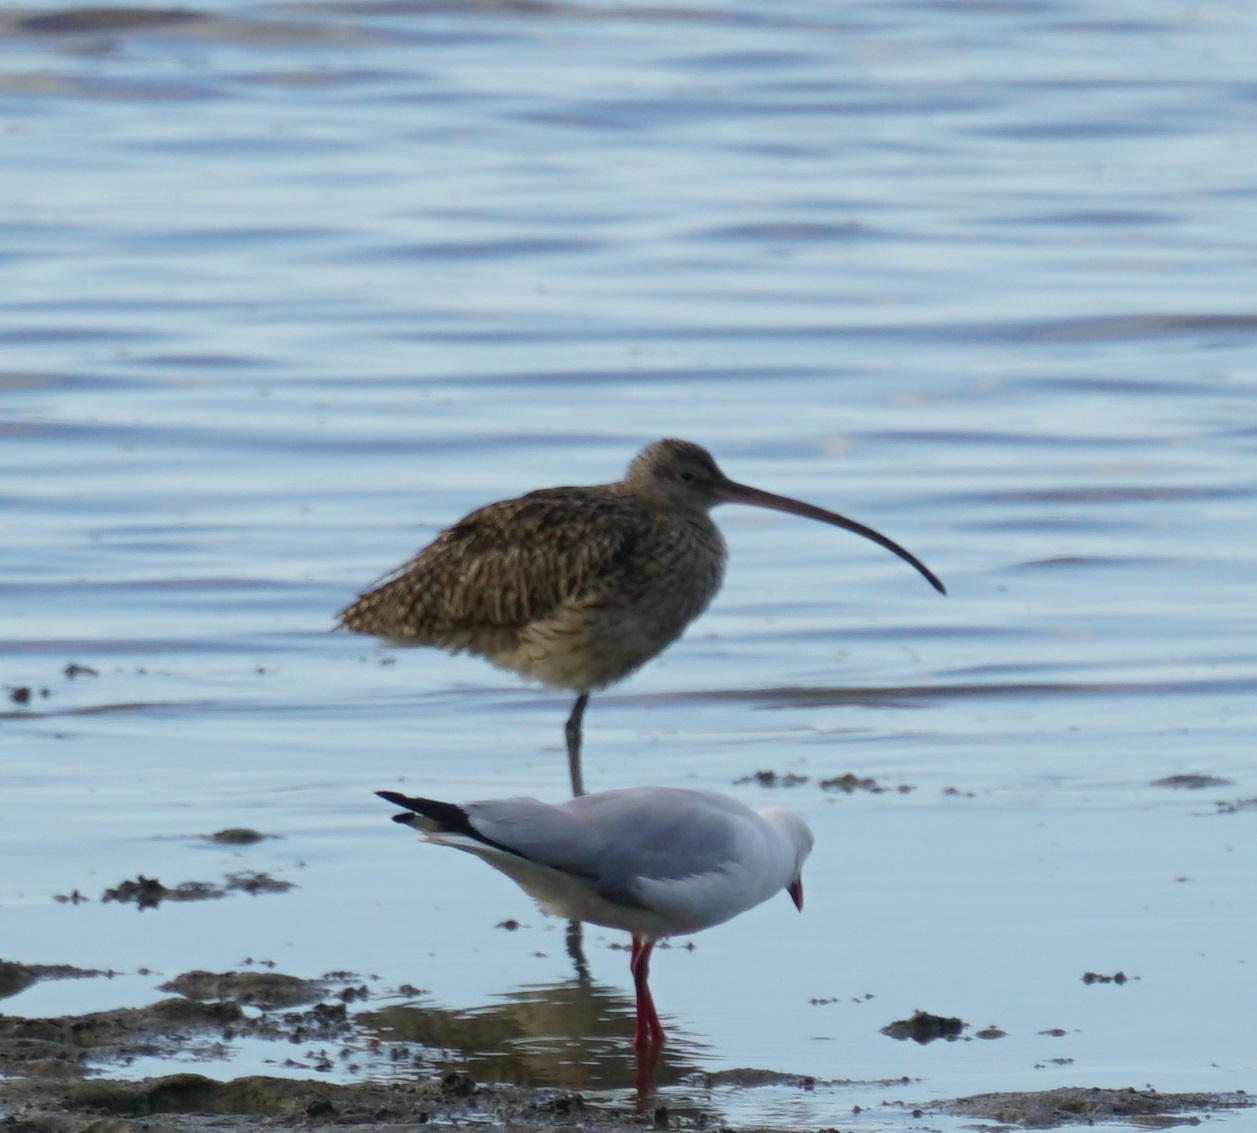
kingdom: Animalia
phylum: Chordata
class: Aves
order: Charadriiformes
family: Scolopacidae
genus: Numenius
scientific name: Numenius madagascariensis
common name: Far eastern curlew
